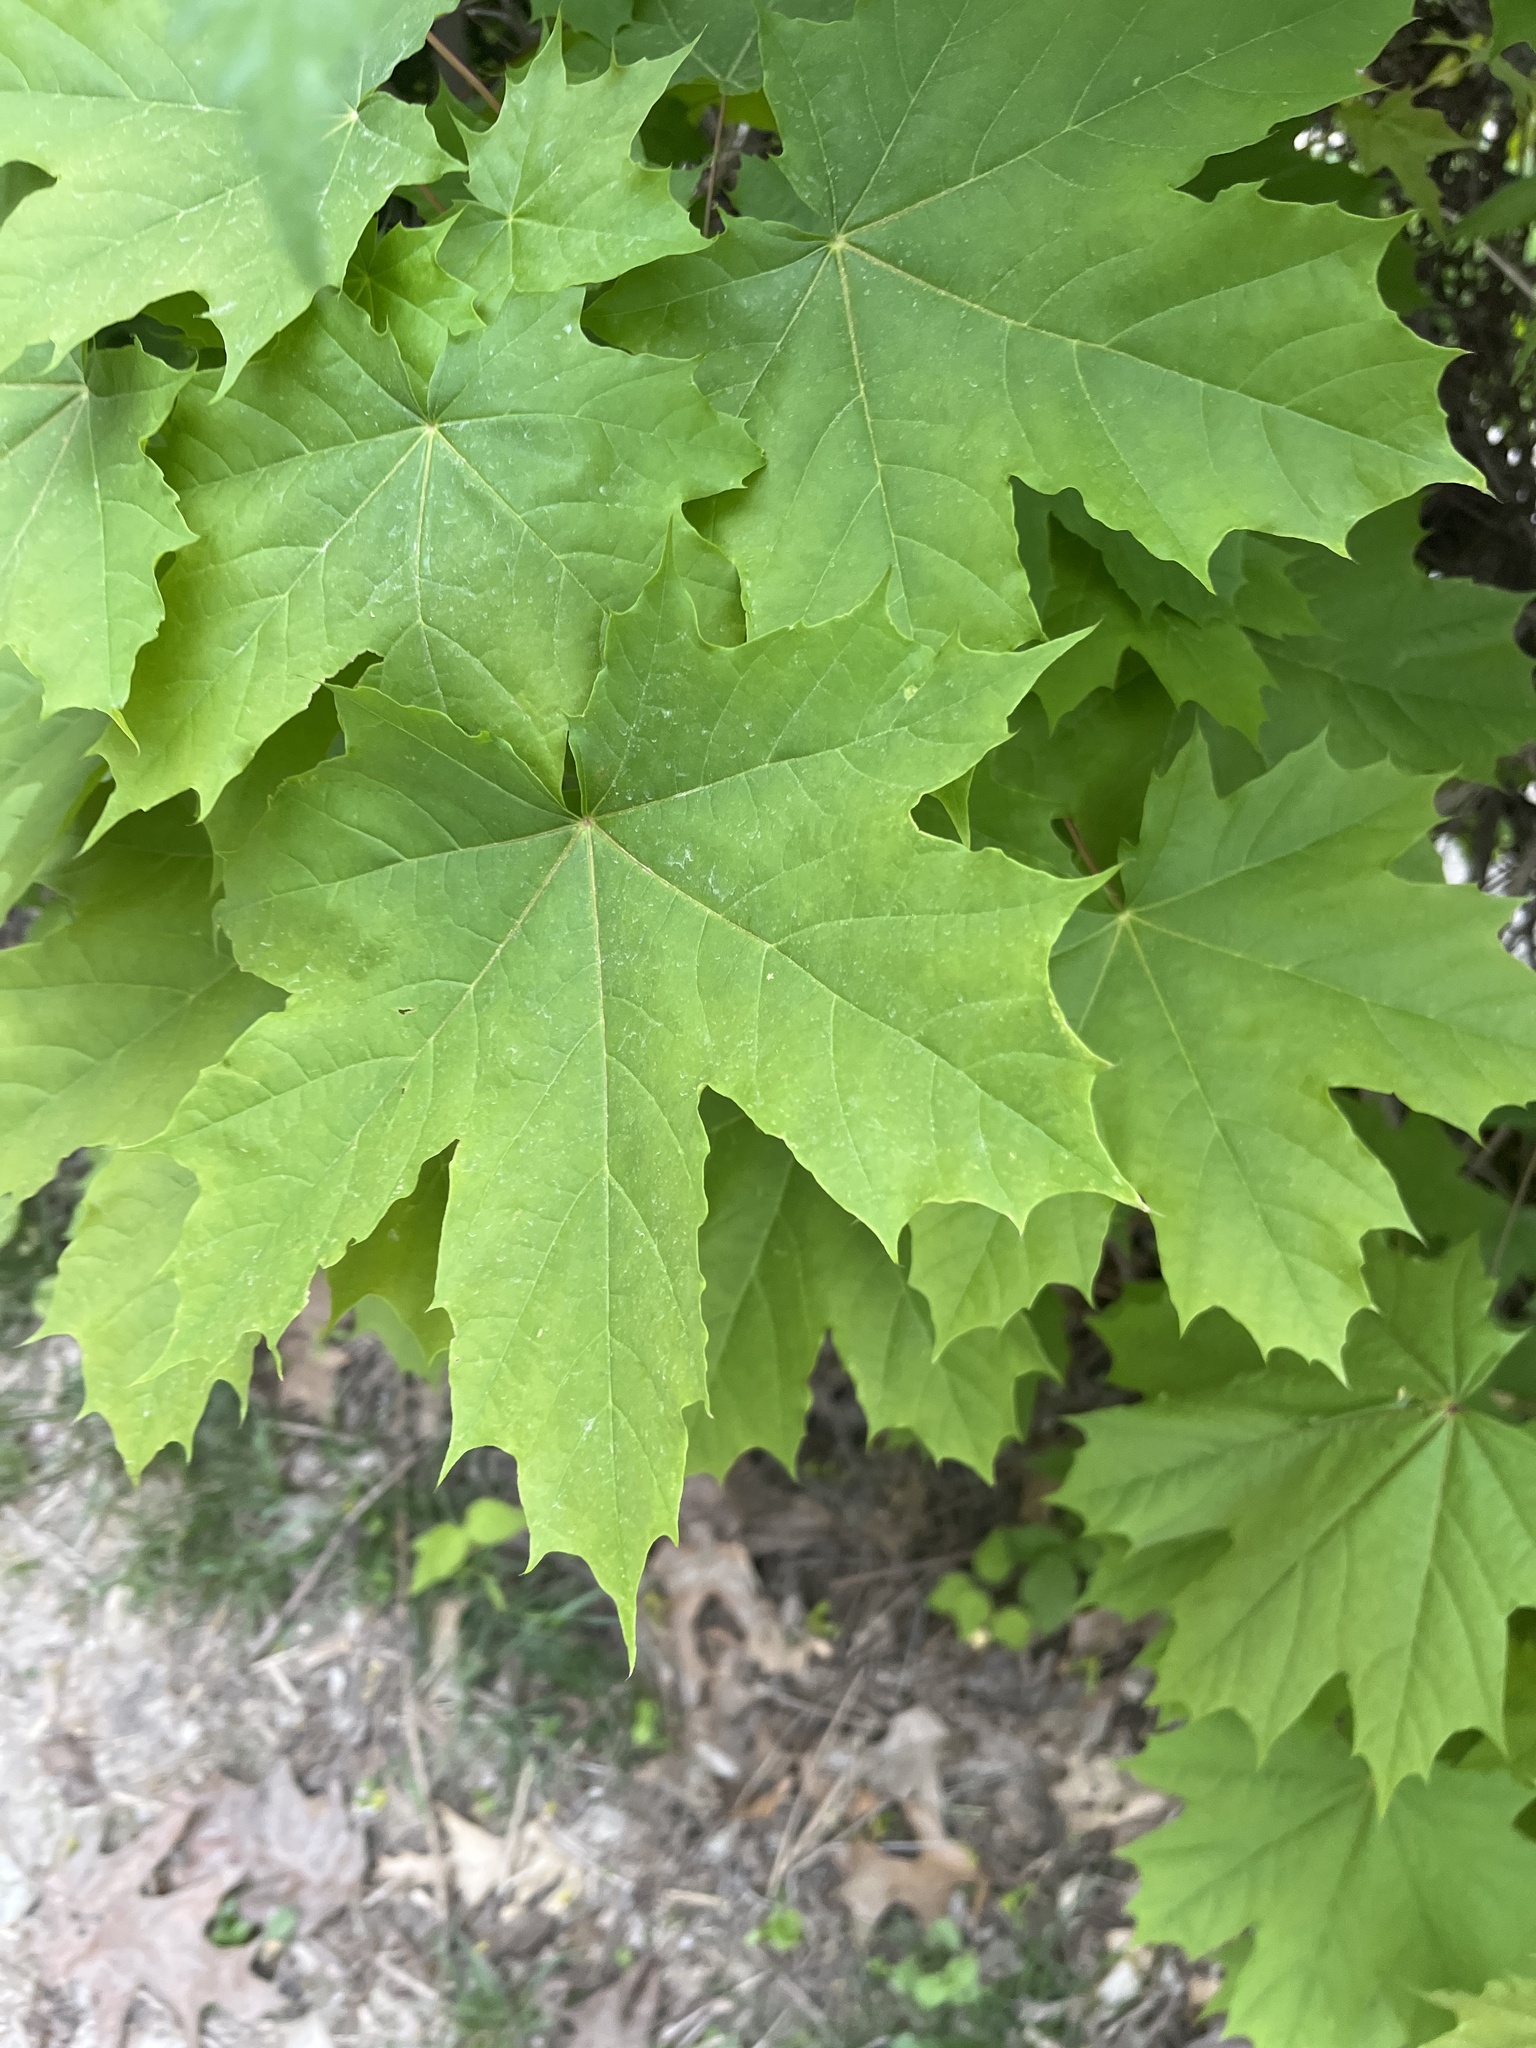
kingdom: Plantae
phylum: Tracheophyta
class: Magnoliopsida
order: Sapindales
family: Sapindaceae
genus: Acer
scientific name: Acer platanoides
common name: Norway maple
